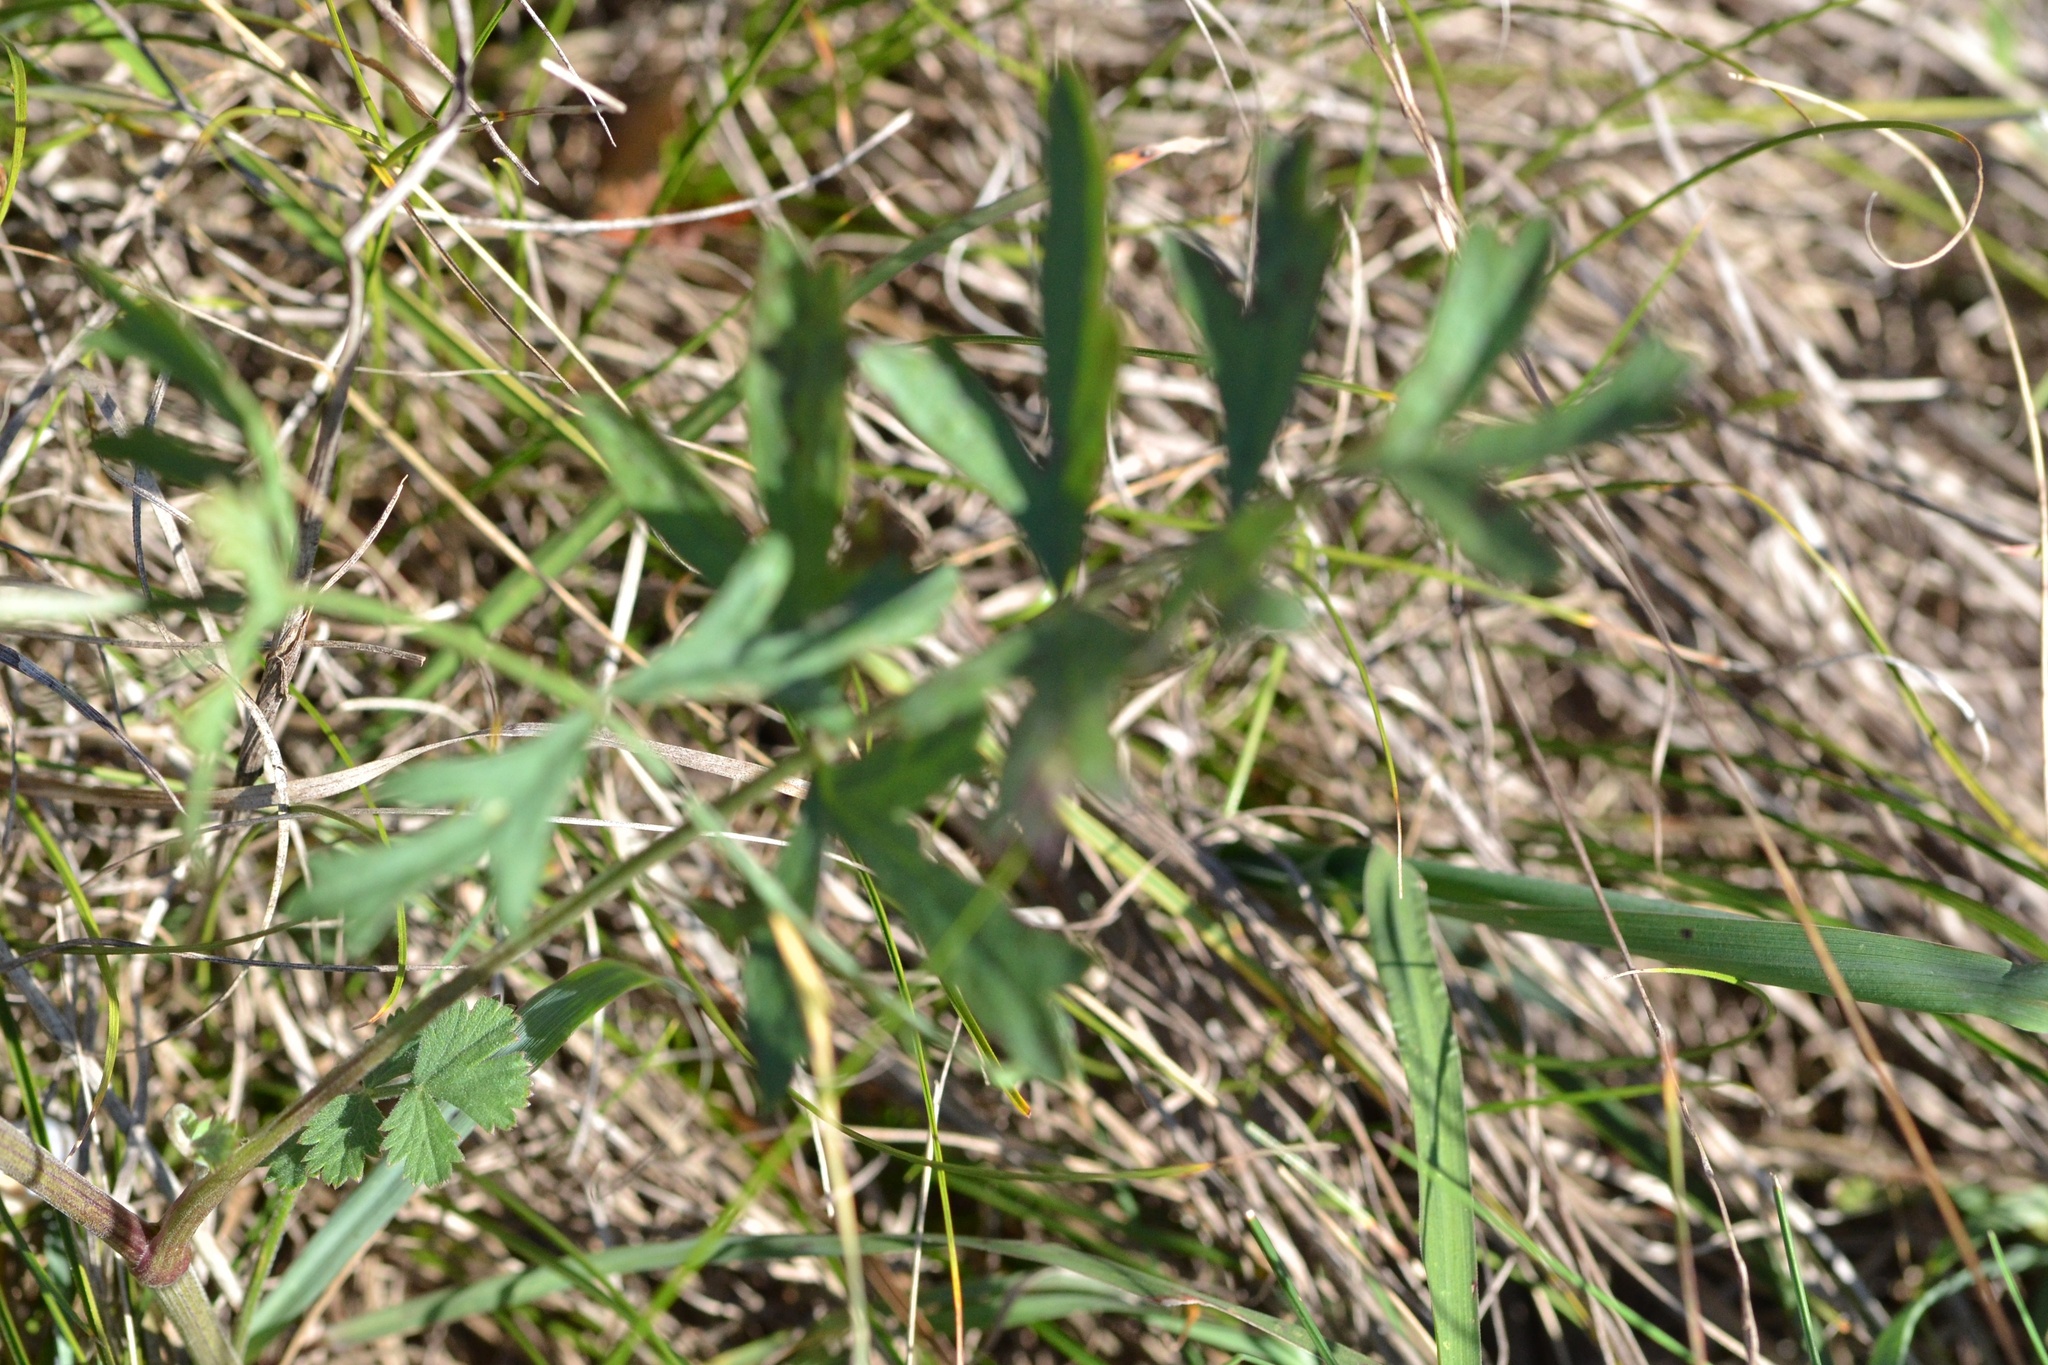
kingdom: Plantae
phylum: Tracheophyta
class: Magnoliopsida
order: Apiales
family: Apiaceae
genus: Pimpinella
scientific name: Pimpinella saxifraga
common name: Burnet-saxifrage
